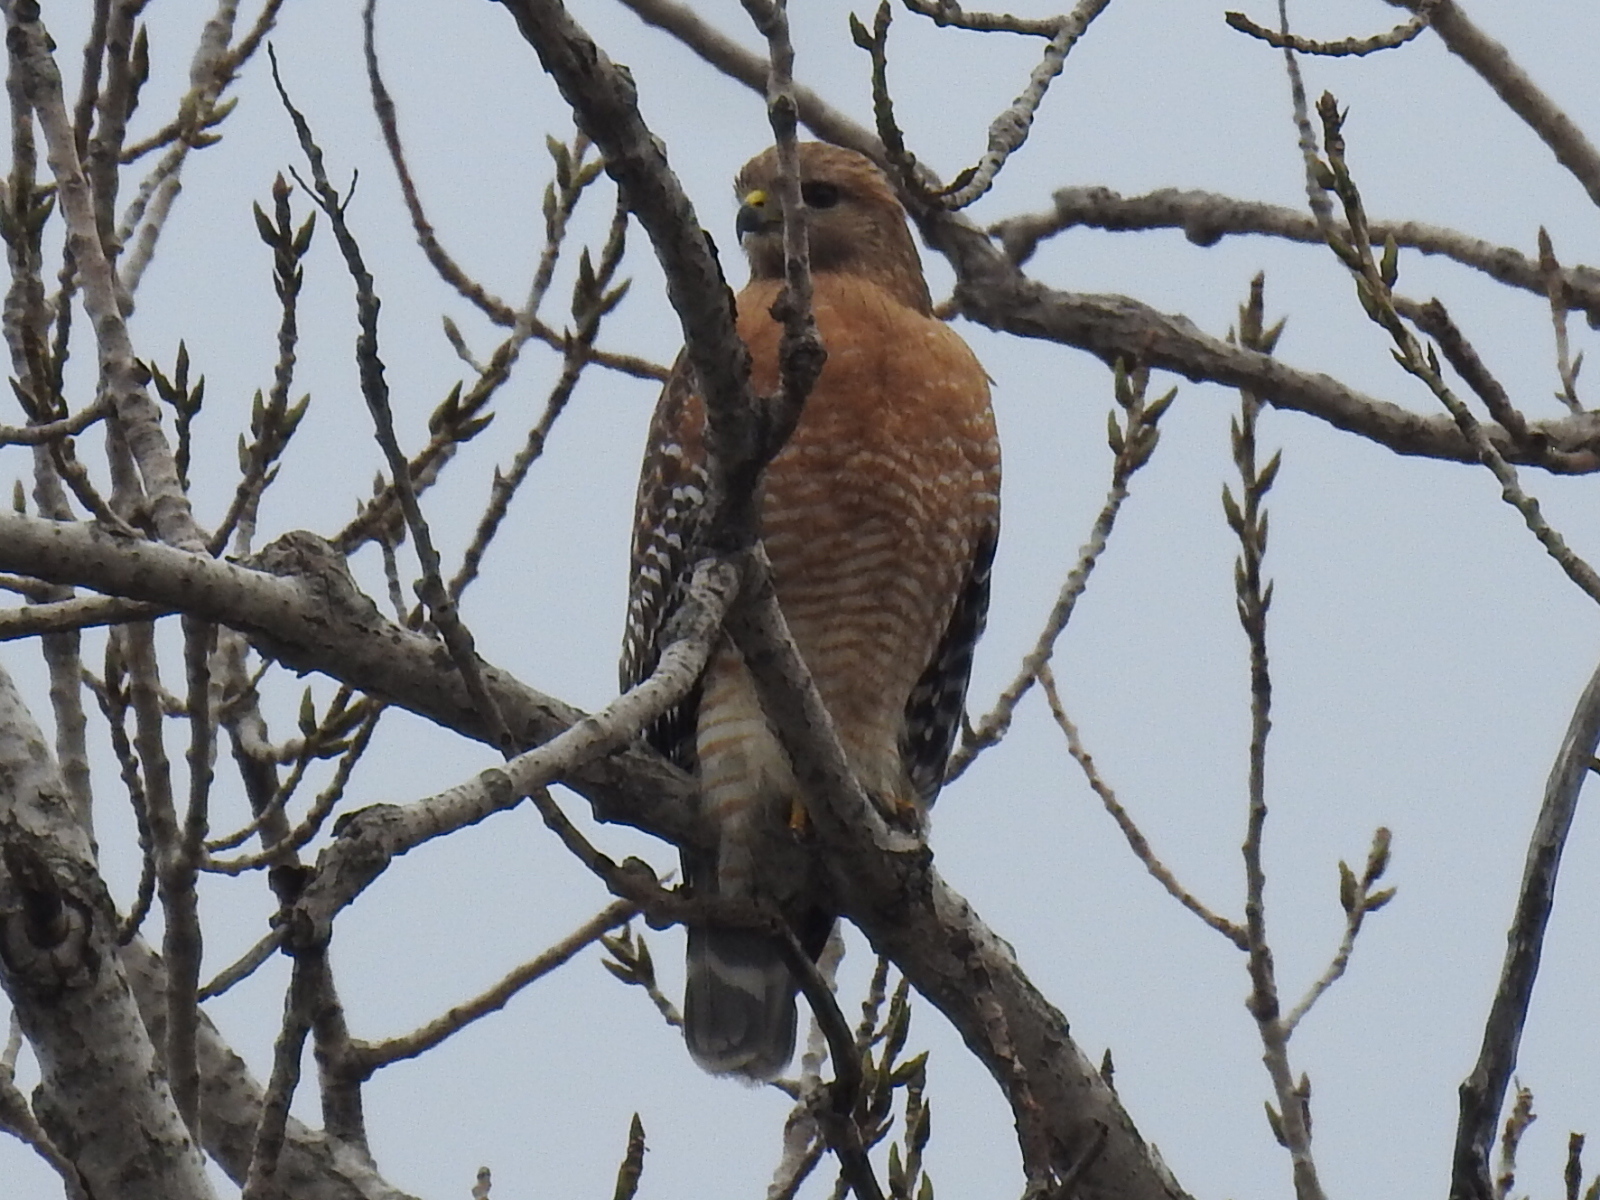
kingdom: Animalia
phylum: Chordata
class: Aves
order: Accipitriformes
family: Accipitridae
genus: Buteo
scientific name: Buteo lineatus
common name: Red-shouldered hawk
